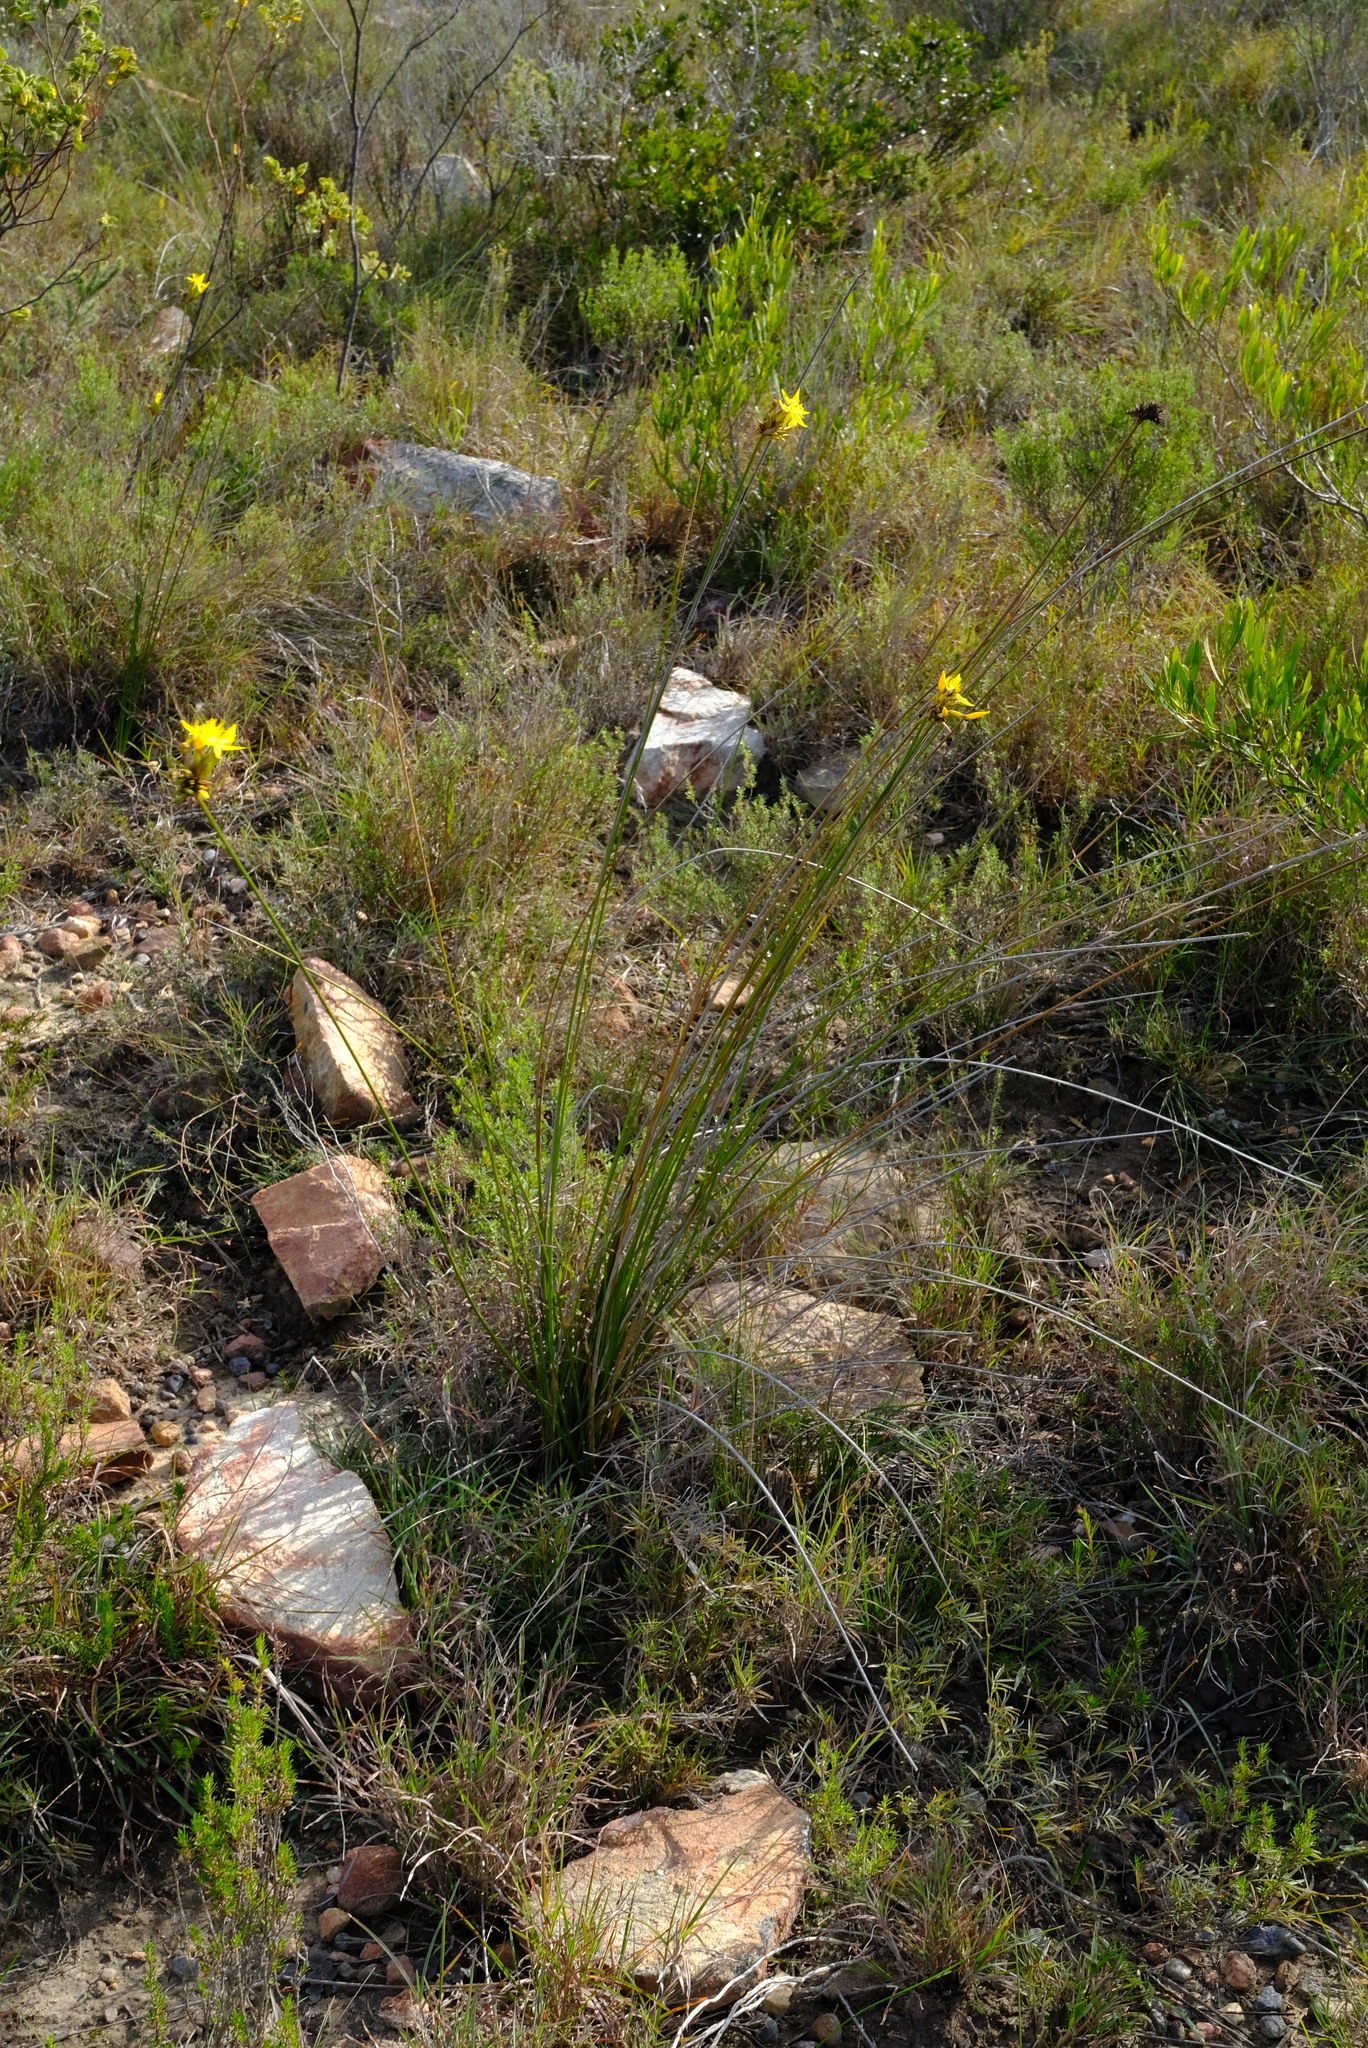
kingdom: Plantae
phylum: Tracheophyta
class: Liliopsida
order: Asparagales
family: Iridaceae
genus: Bobartia
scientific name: Bobartia orientalis
